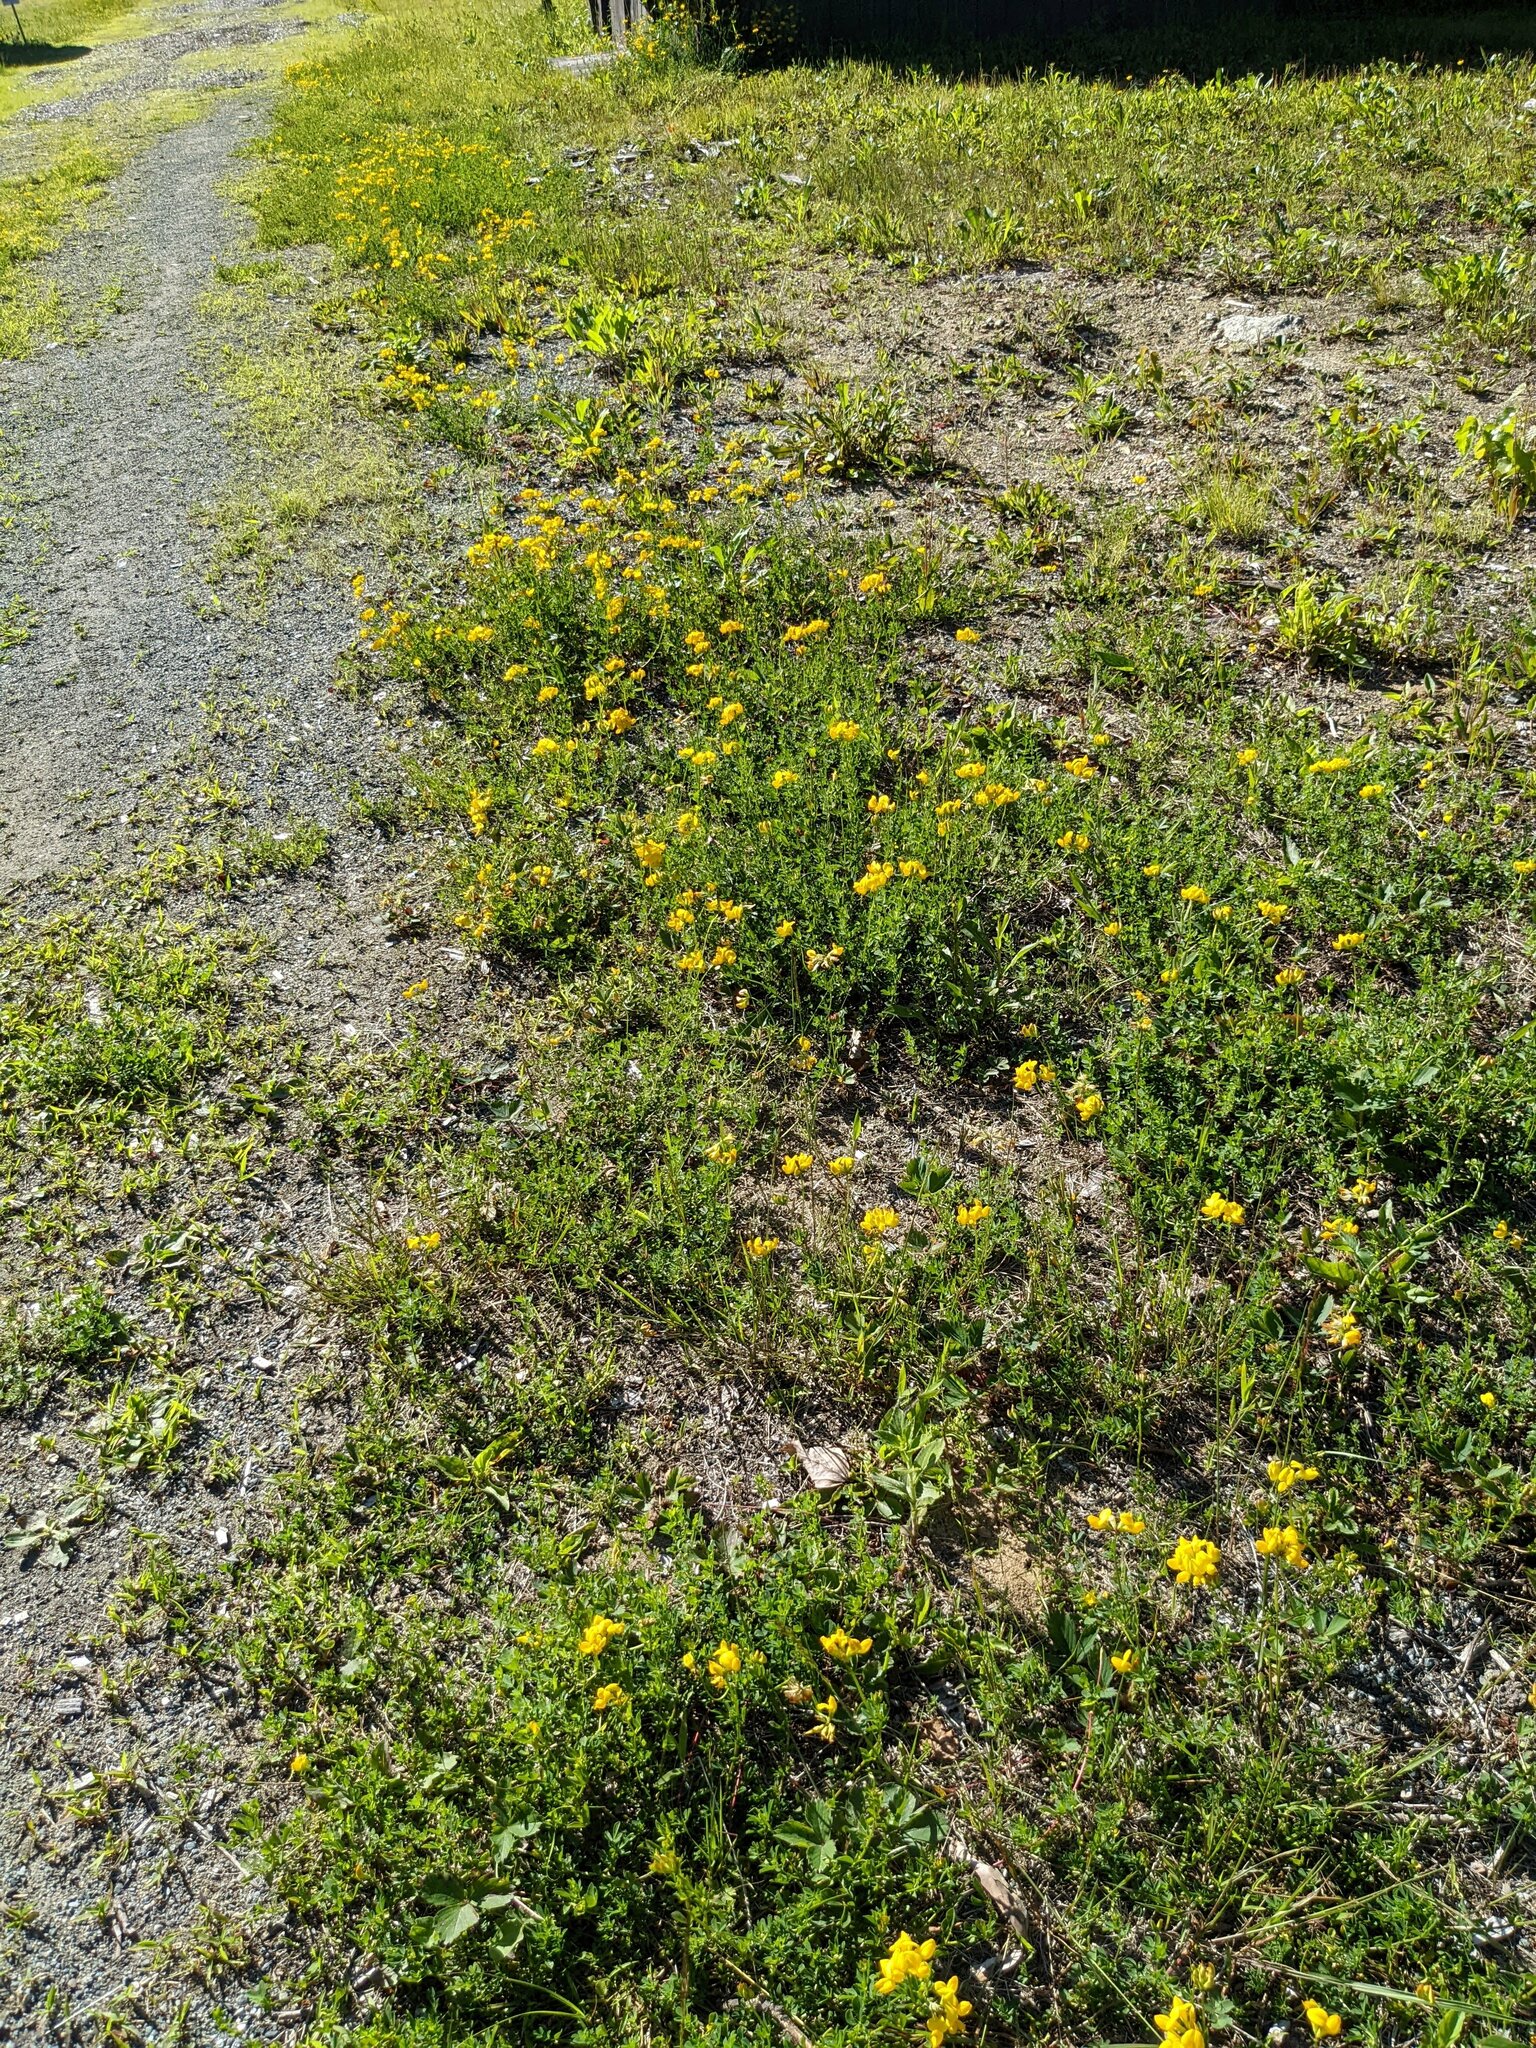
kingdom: Plantae
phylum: Tracheophyta
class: Magnoliopsida
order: Fabales
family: Fabaceae
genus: Lotus
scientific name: Lotus corniculatus
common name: Common bird's-foot-trefoil
